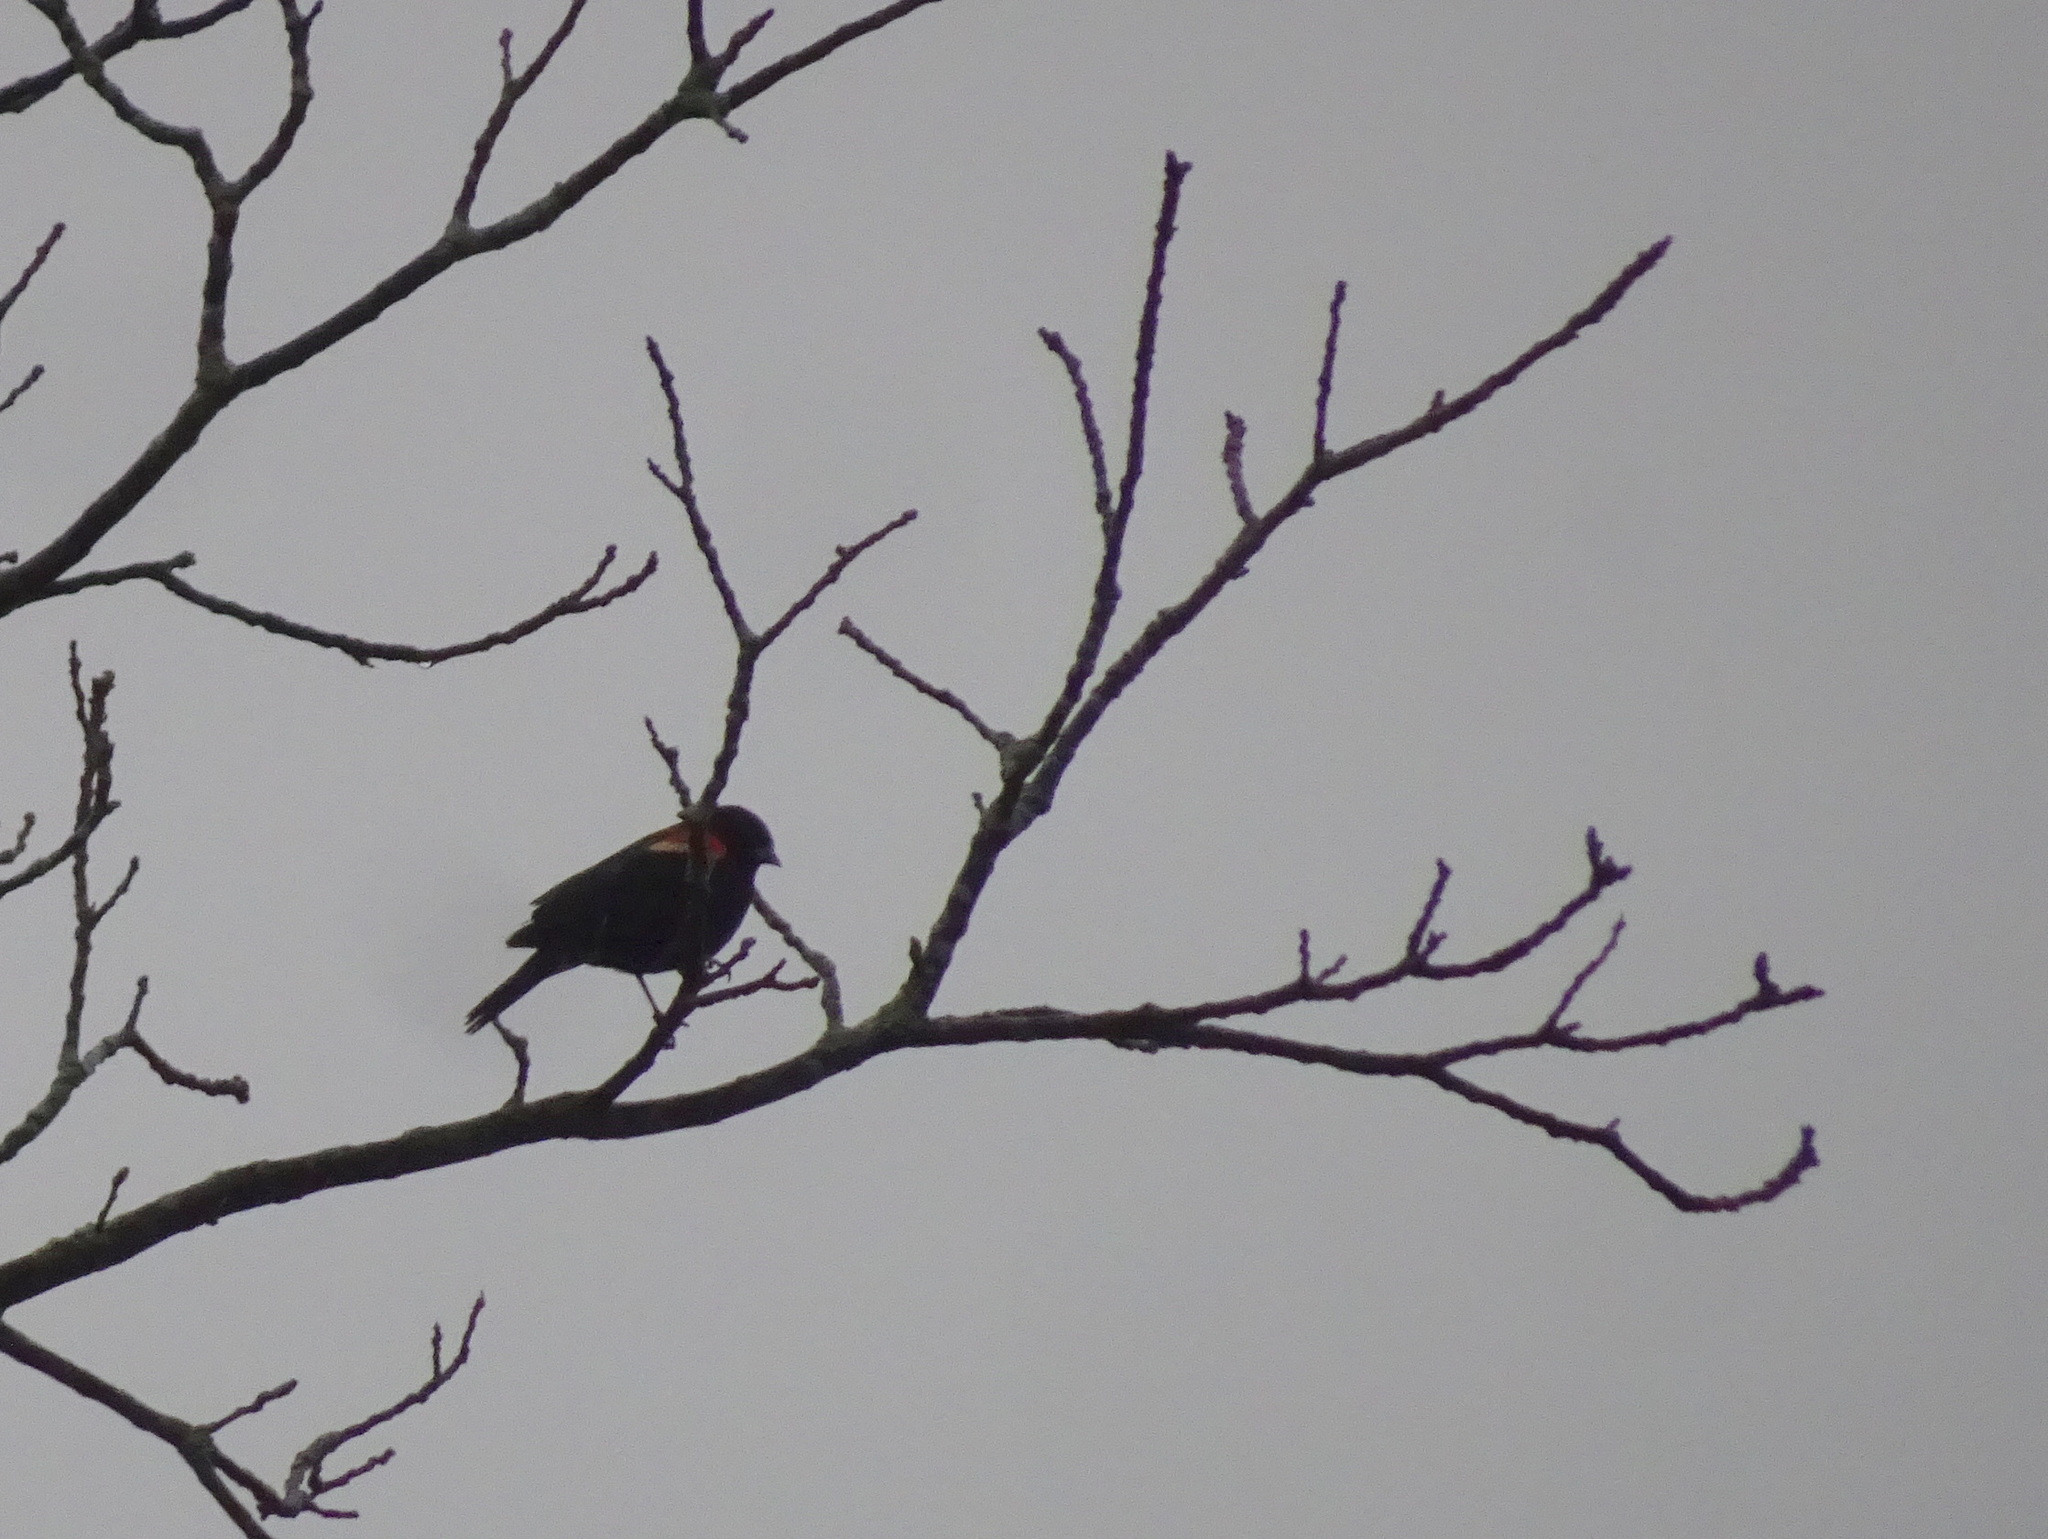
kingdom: Animalia
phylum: Chordata
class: Aves
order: Passeriformes
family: Icteridae
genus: Agelaius
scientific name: Agelaius phoeniceus
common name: Red-winged blackbird
